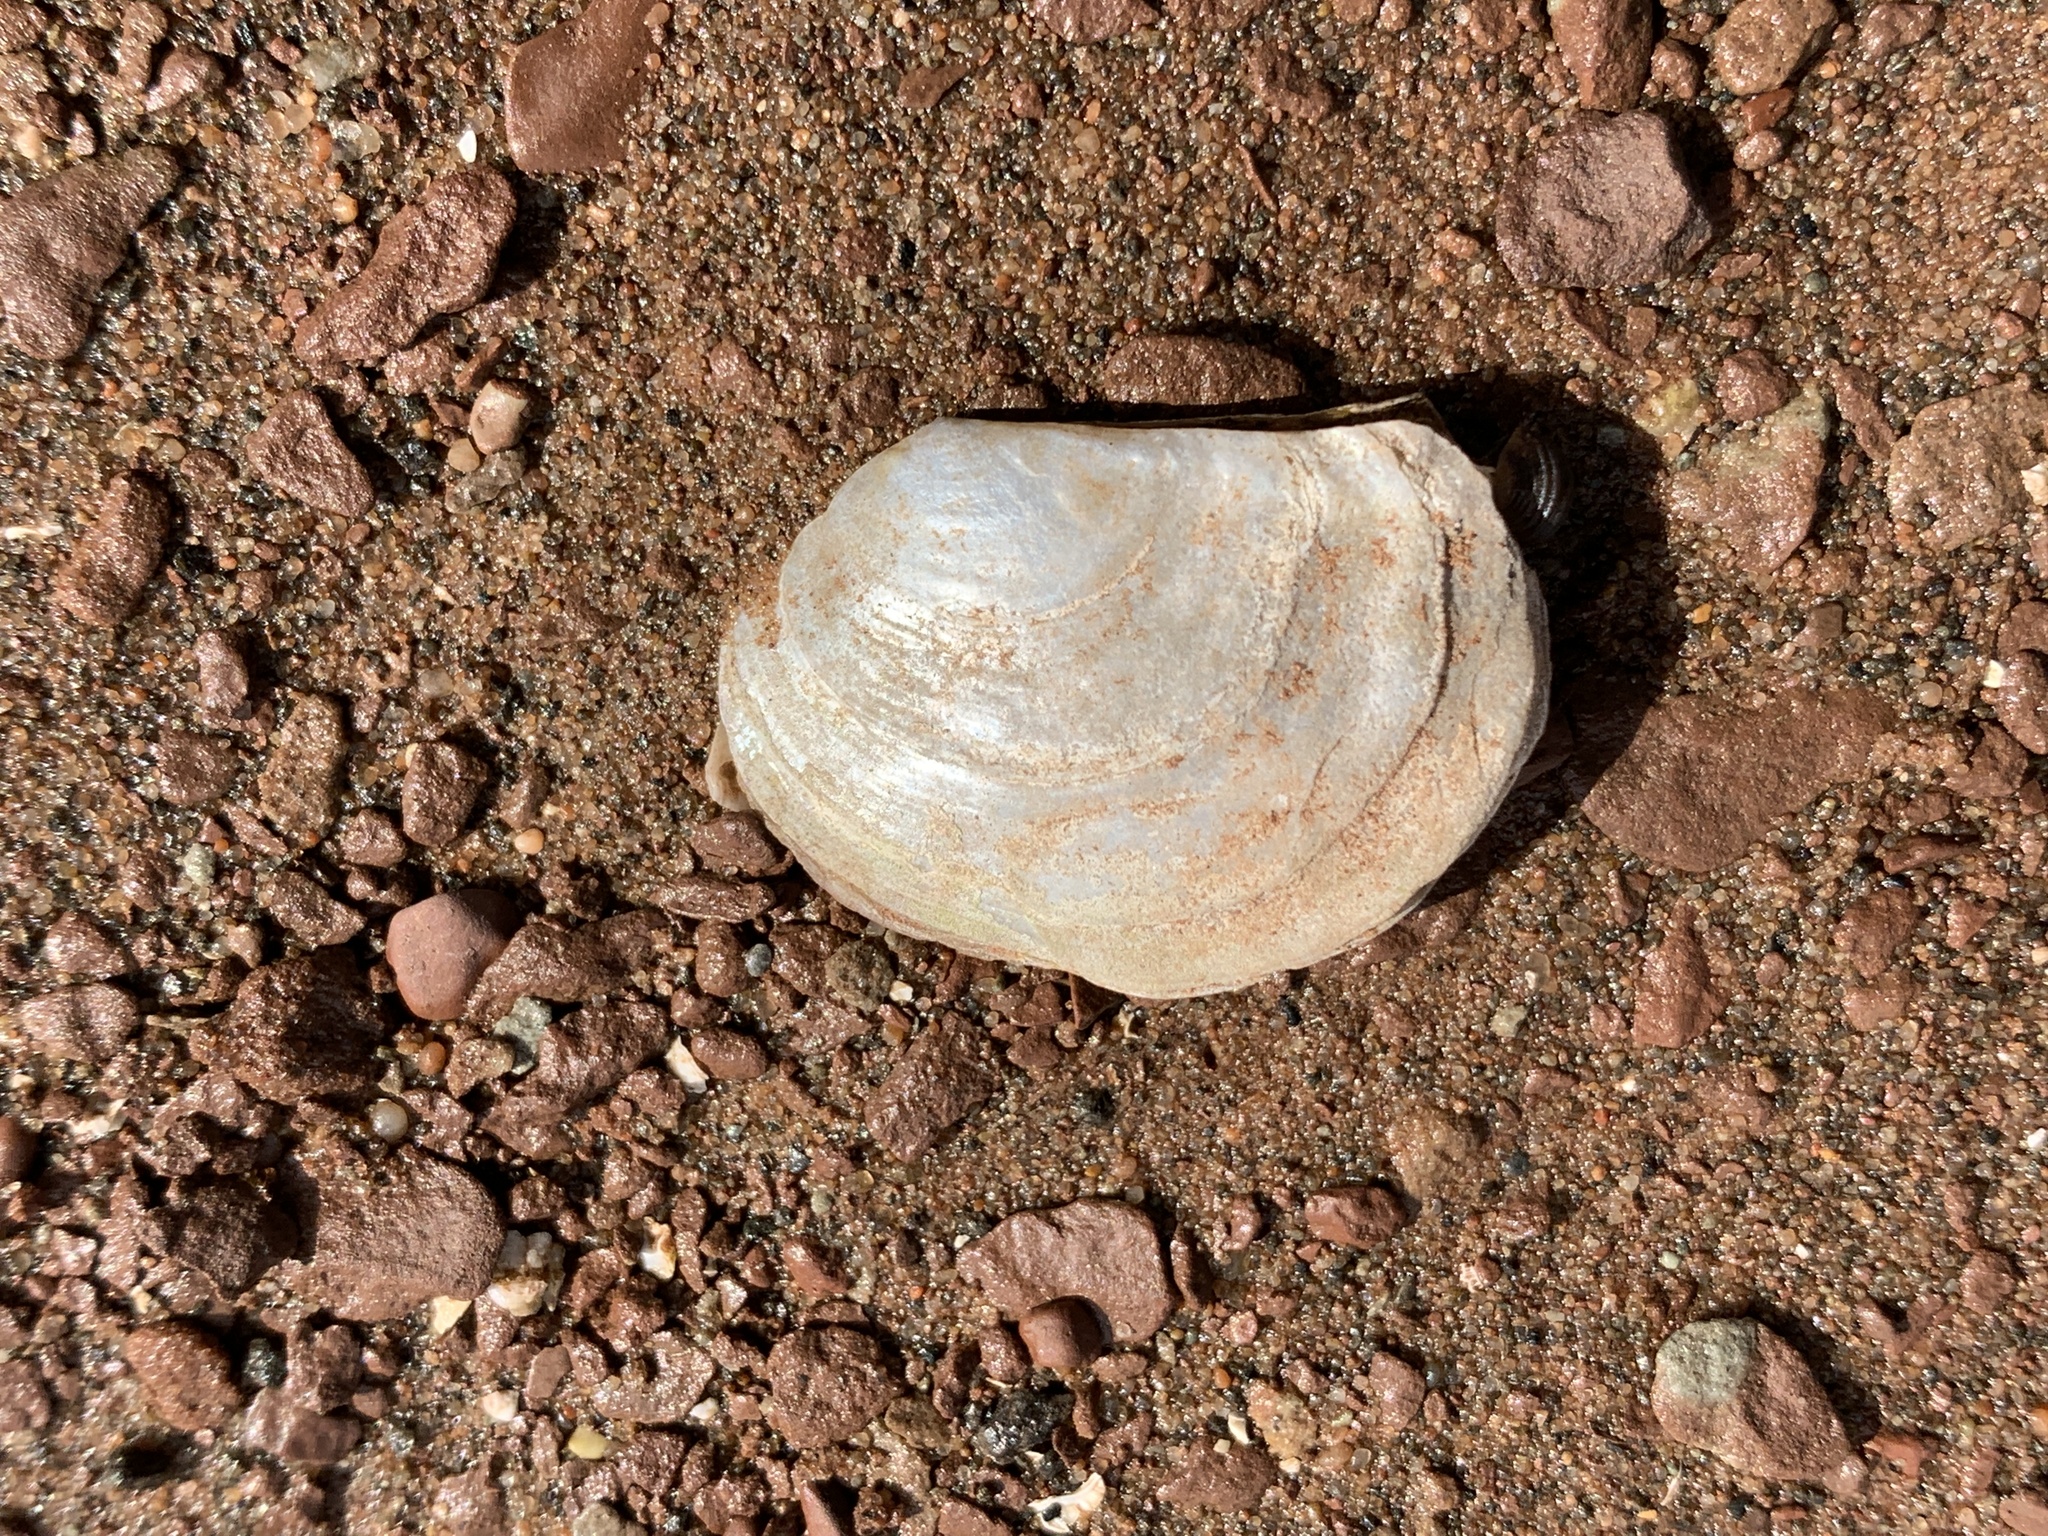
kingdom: Animalia
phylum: Mollusca
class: Bivalvia
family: Pandoridae
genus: Pandora
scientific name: Pandora gouldiana
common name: Rounded pandora
